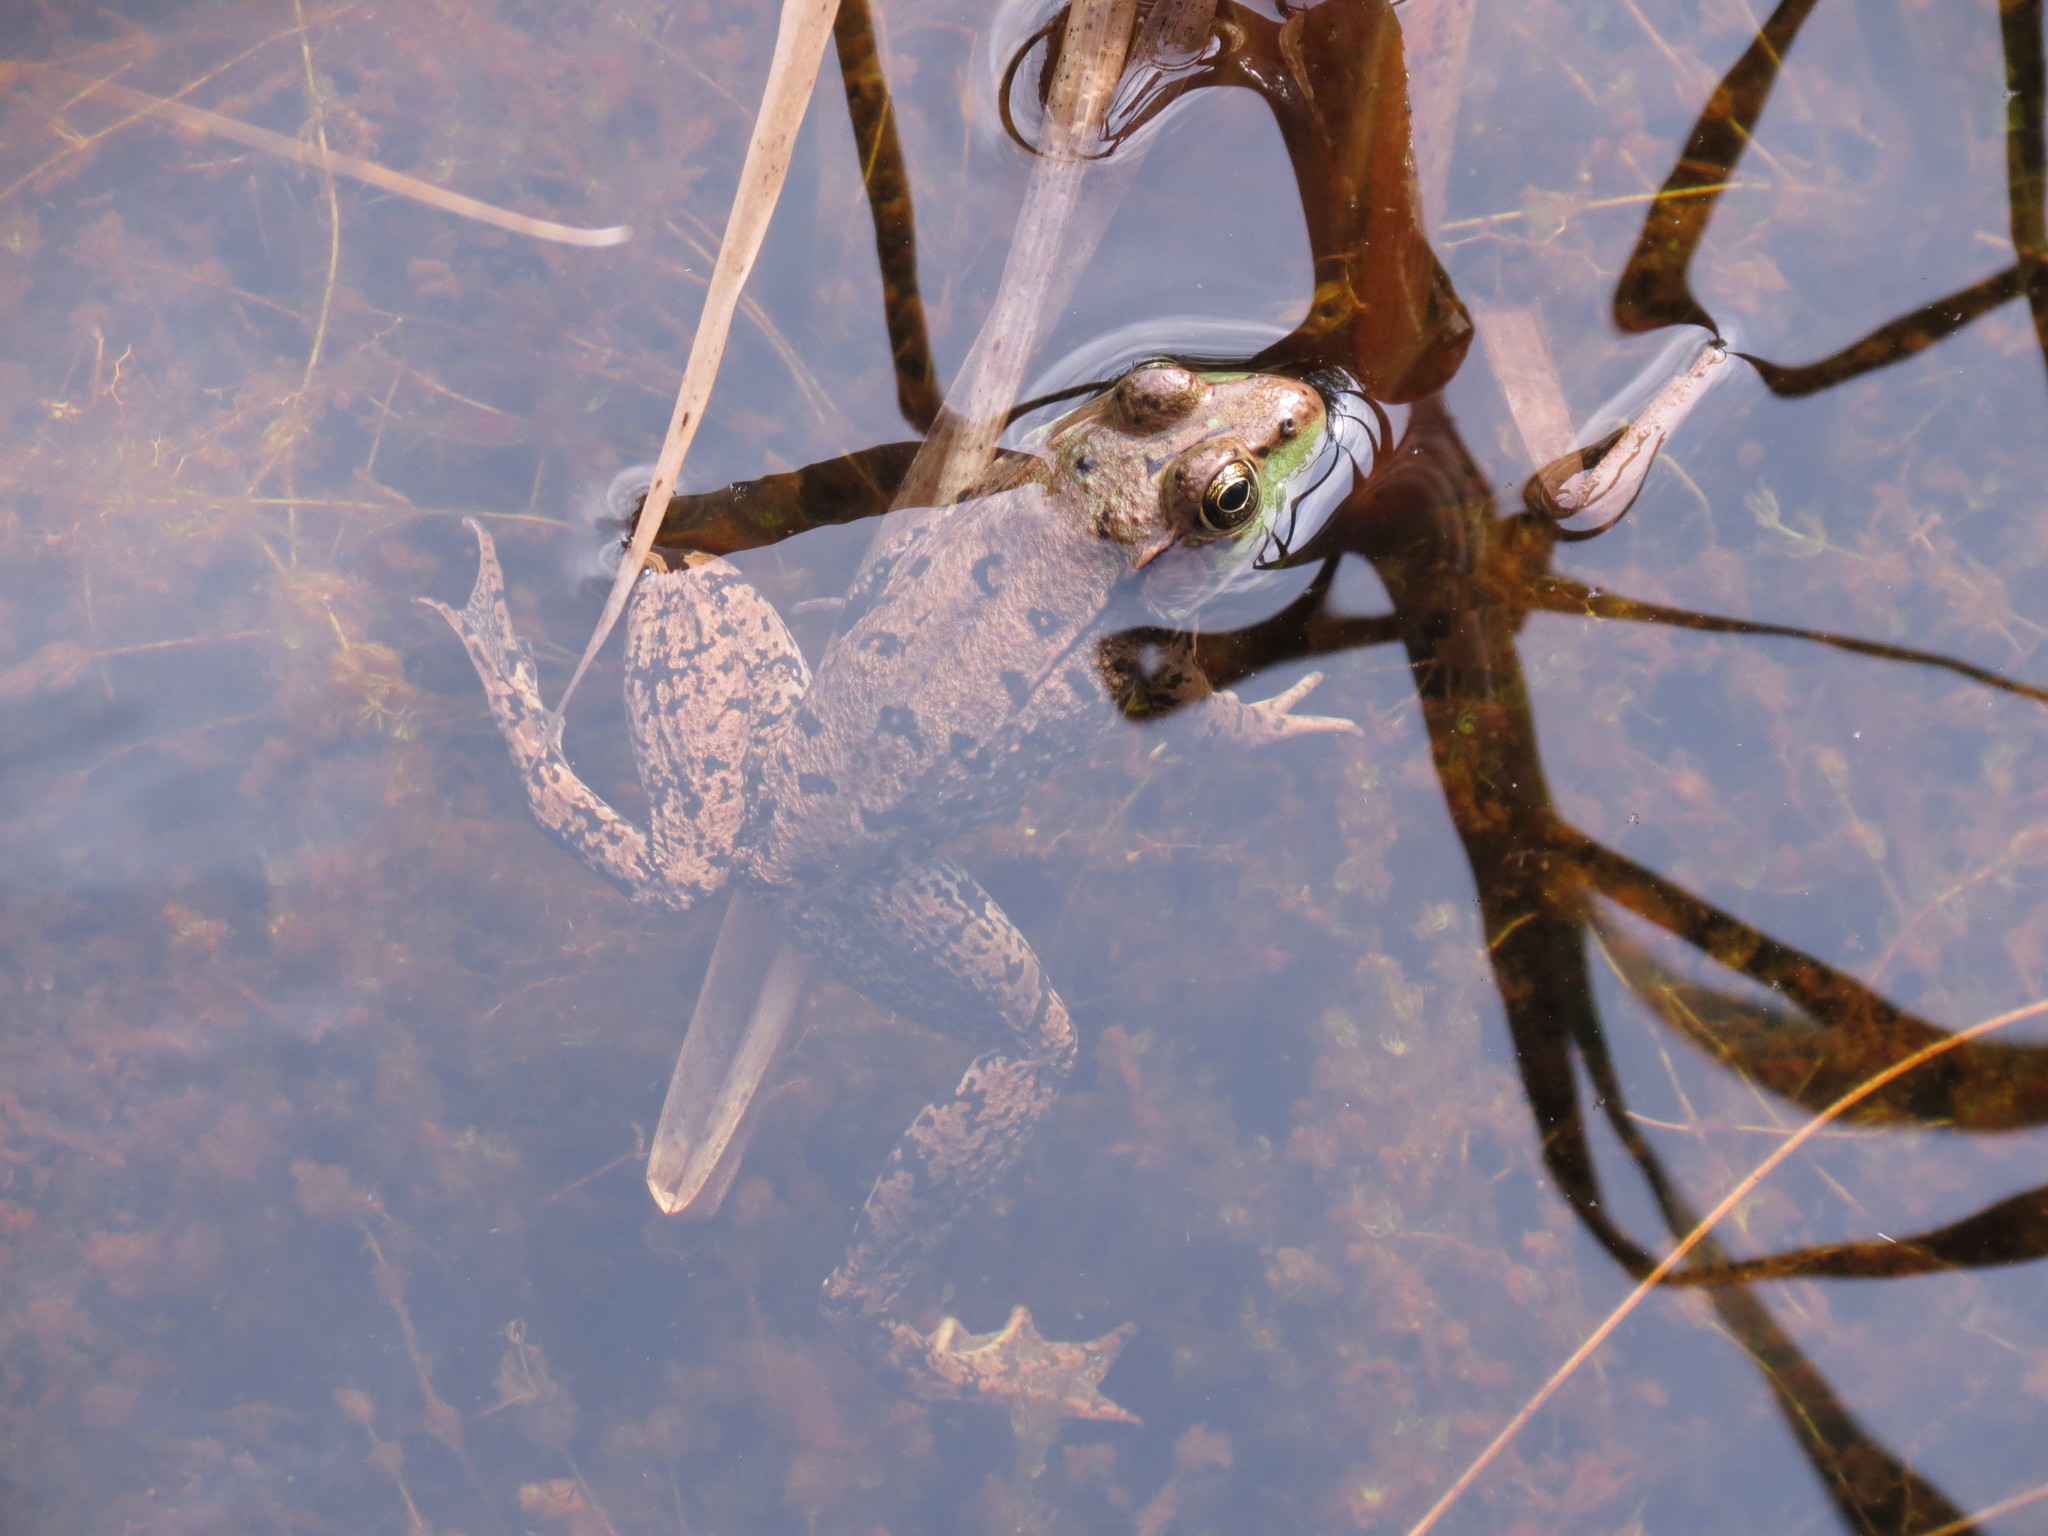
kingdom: Animalia
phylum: Chordata
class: Amphibia
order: Anura
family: Ranidae
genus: Lithobates
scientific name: Lithobates clamitans
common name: Green frog
